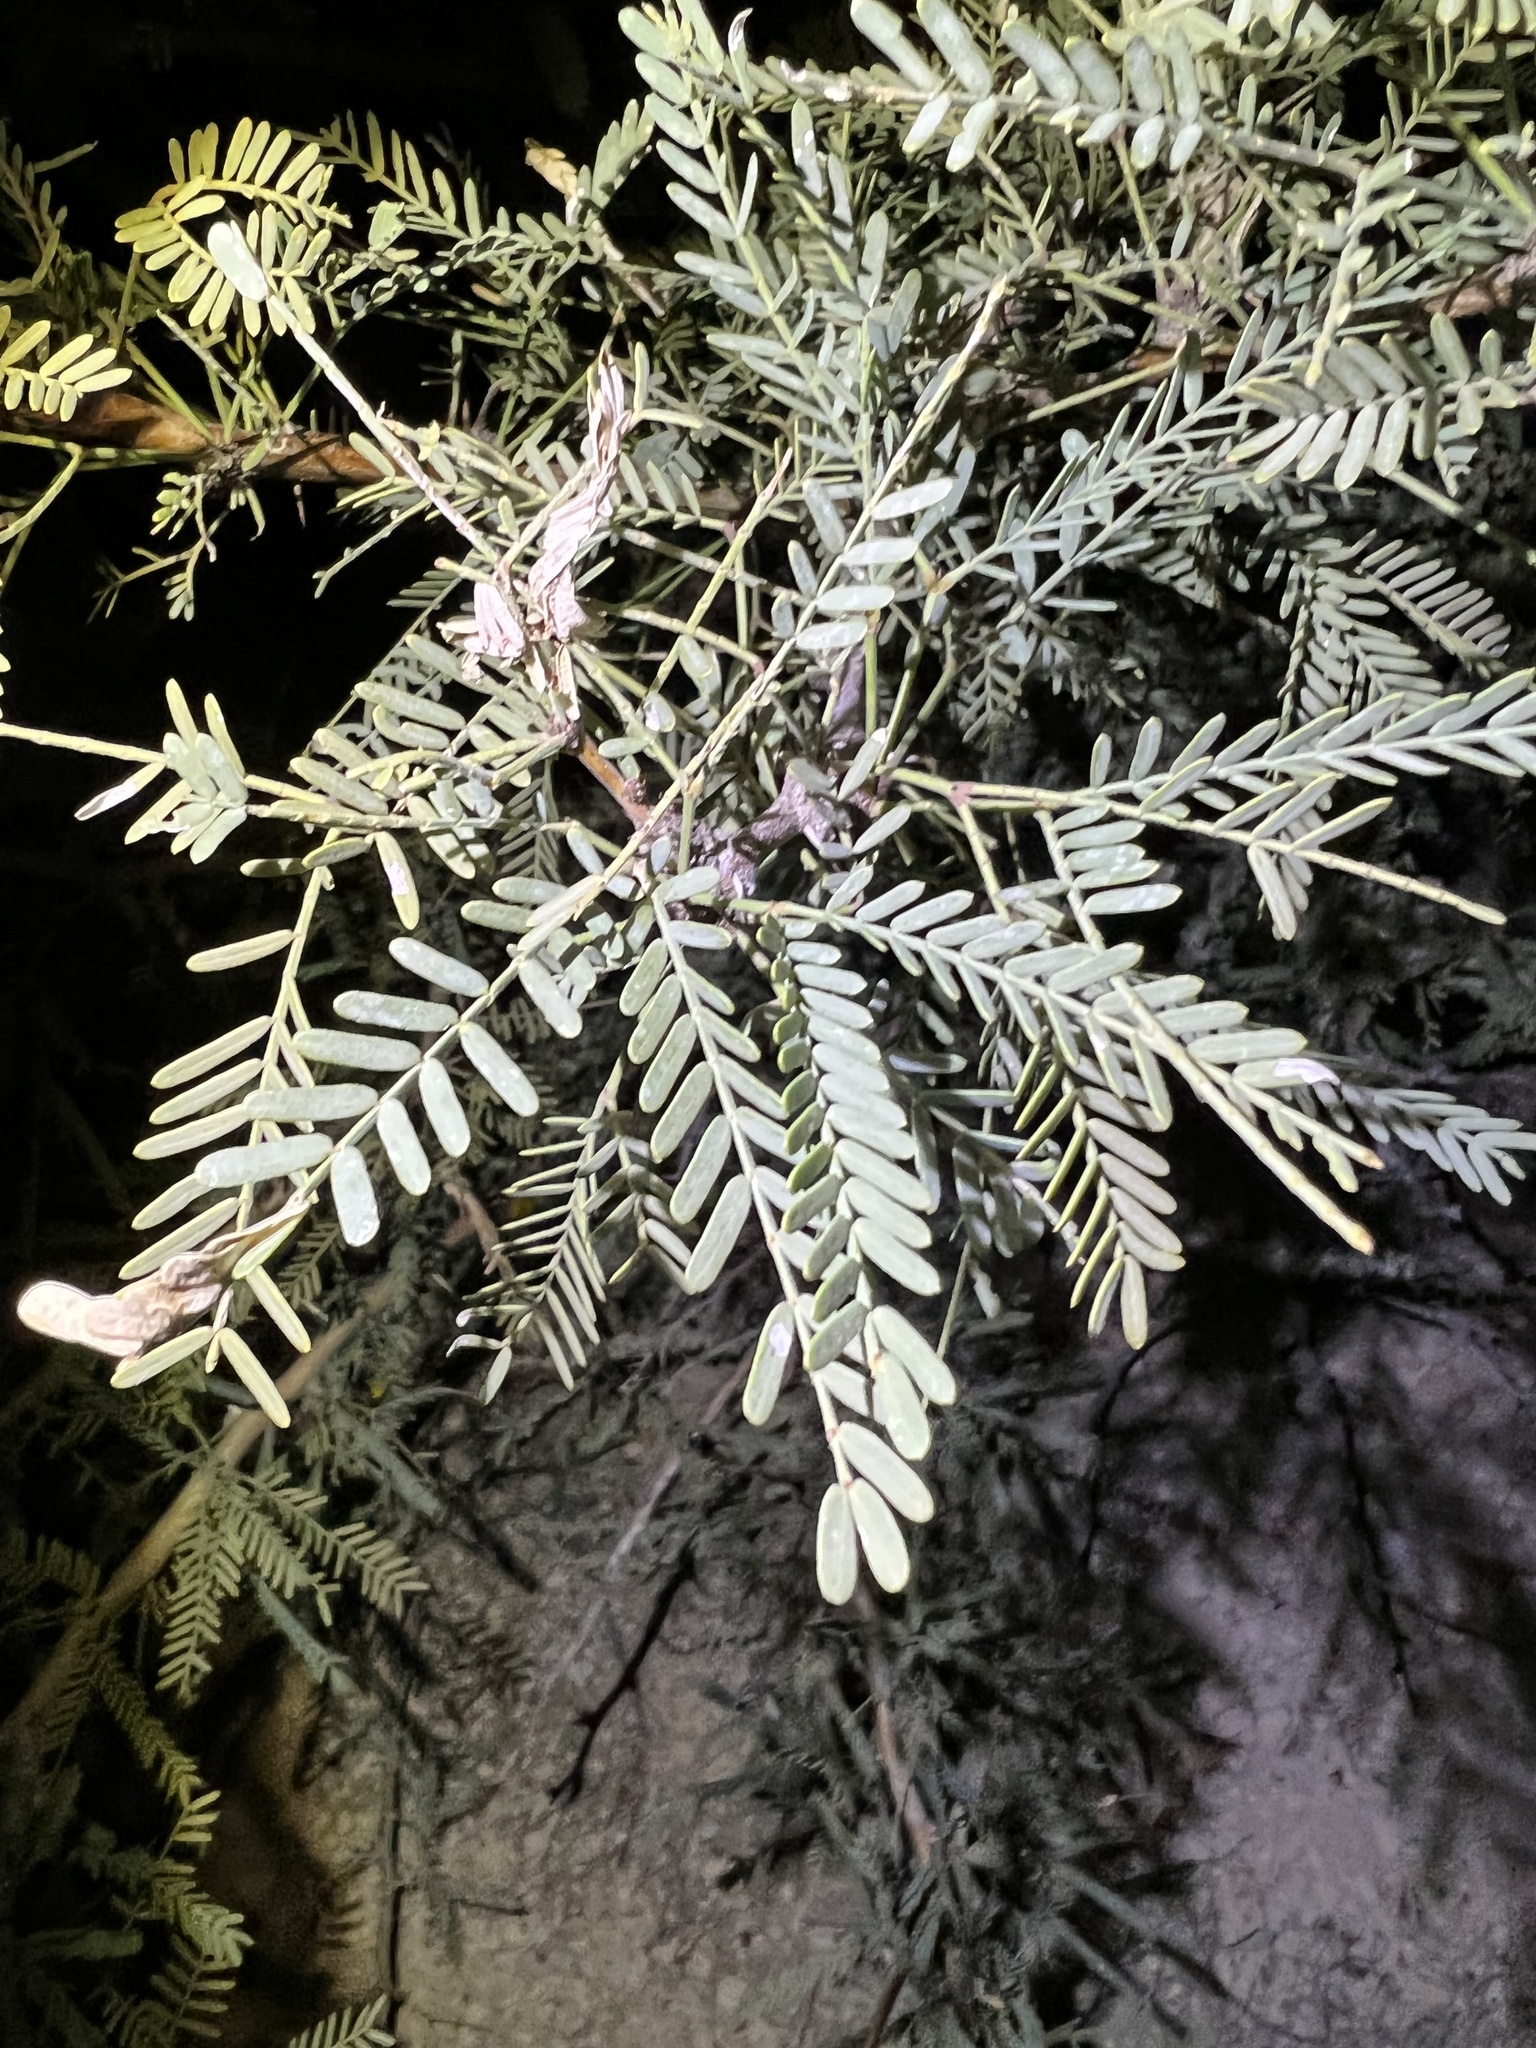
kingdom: Plantae
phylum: Tracheophyta
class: Magnoliopsida
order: Fabales
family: Fabaceae
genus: Prosopis
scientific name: Prosopis pubescens
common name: Screw-bean
